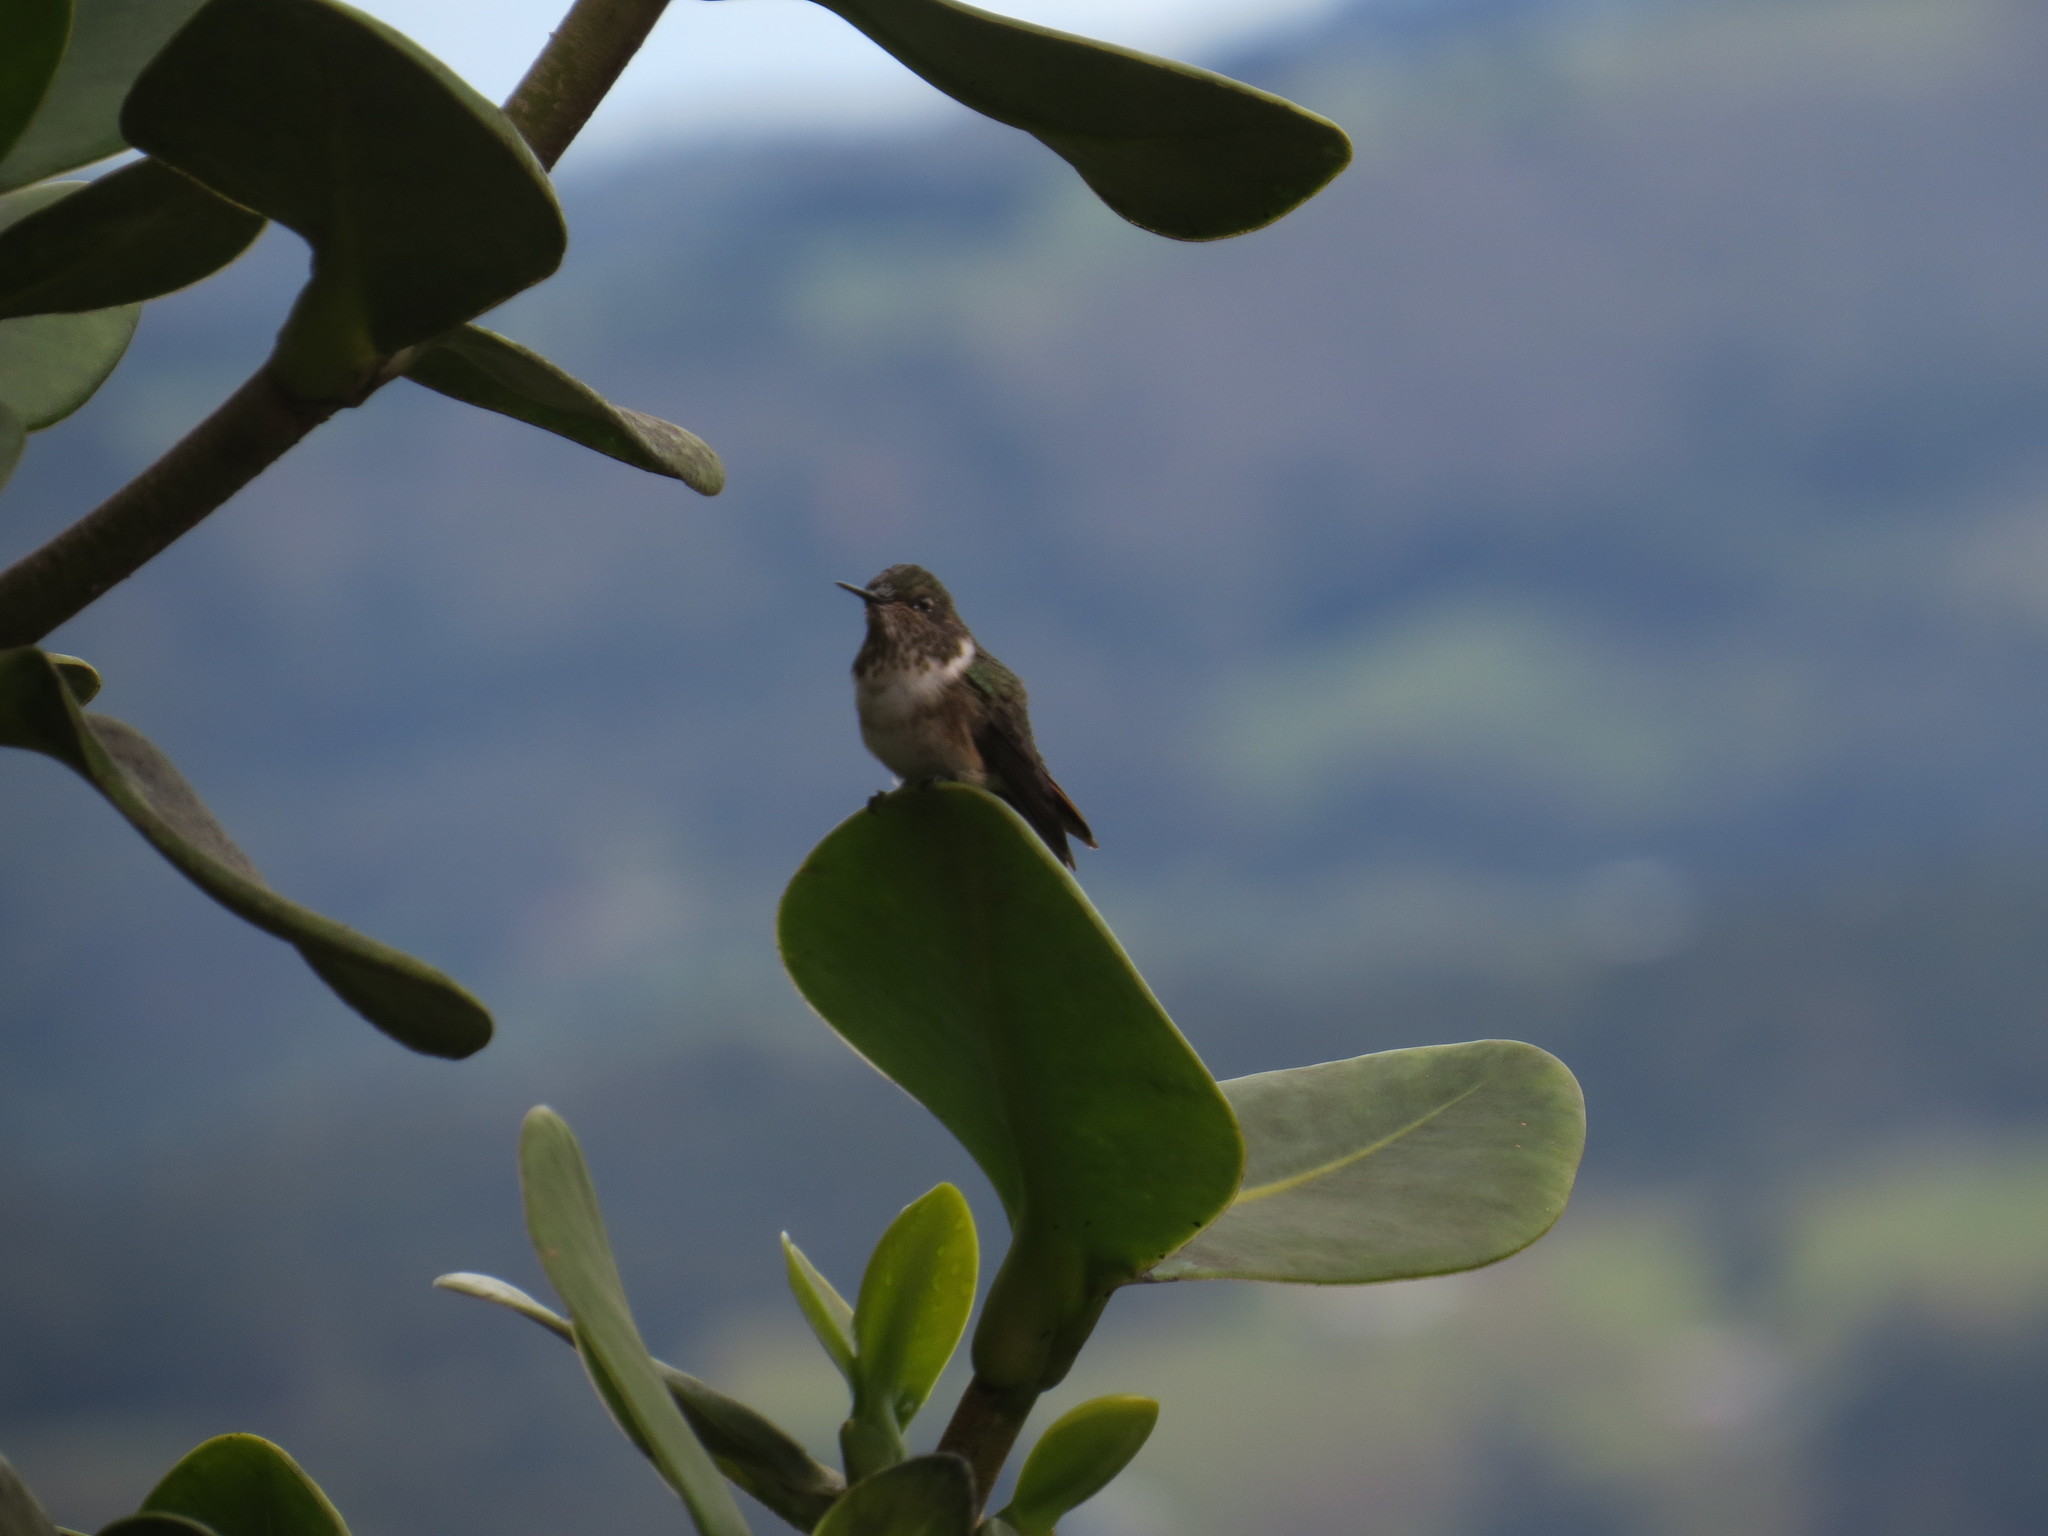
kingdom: Animalia
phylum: Chordata
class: Aves
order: Apodiformes
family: Trochilidae
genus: Selasphorus
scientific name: Selasphorus flammula
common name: Volcano hummingbird
